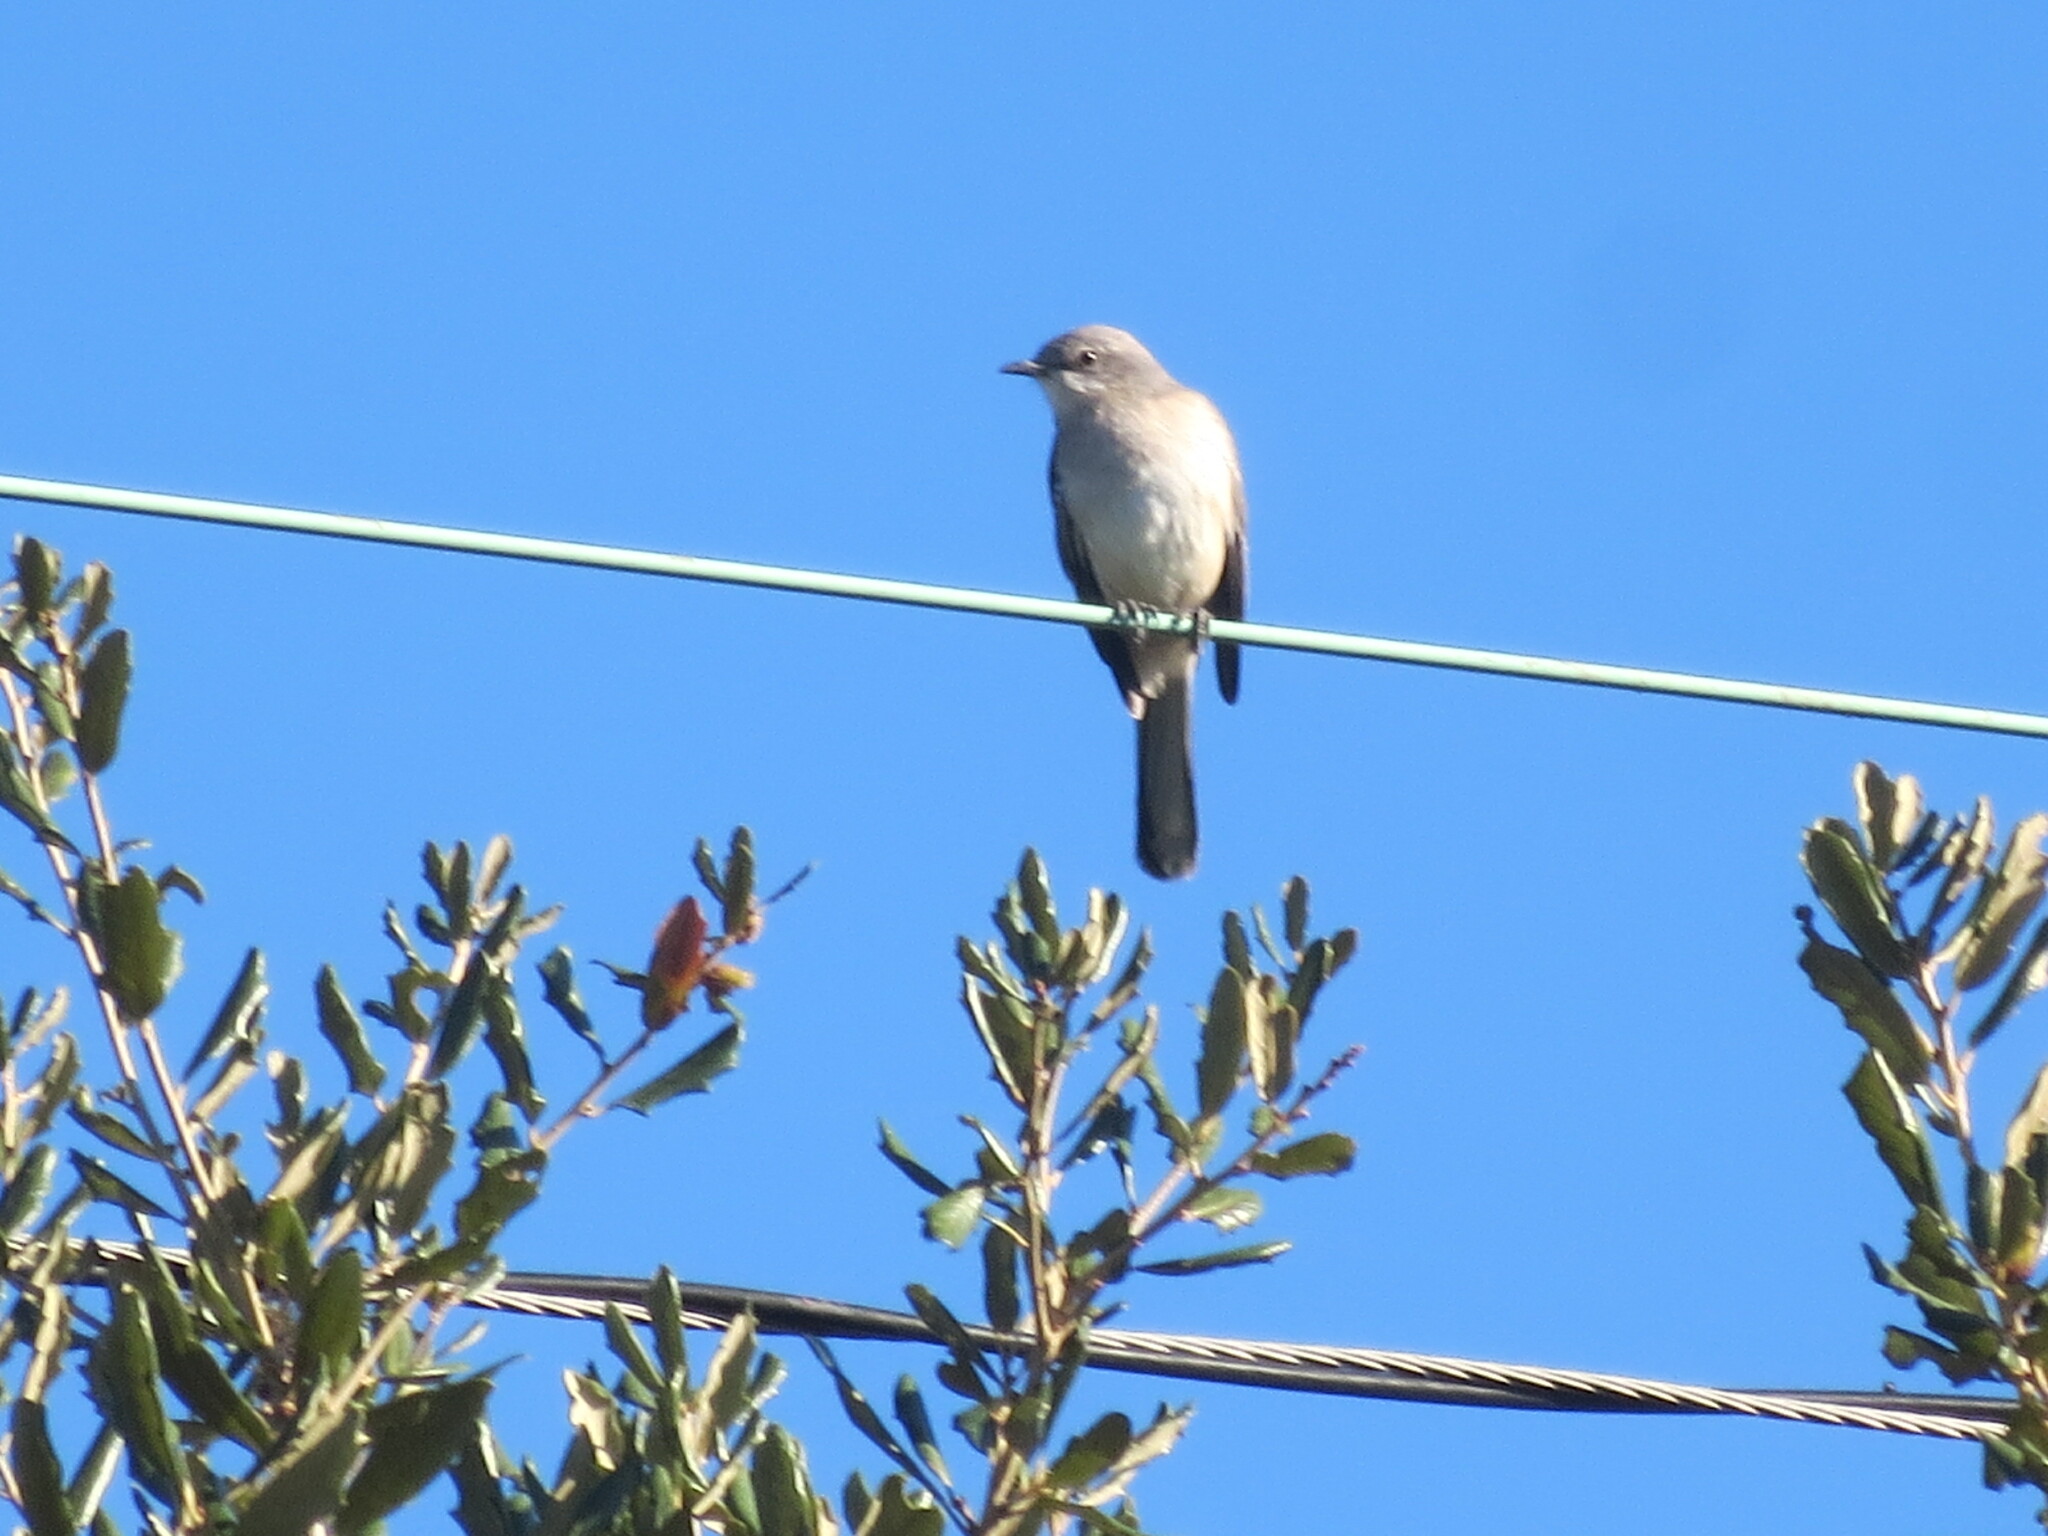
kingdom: Animalia
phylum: Chordata
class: Aves
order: Passeriformes
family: Mimidae
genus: Mimus
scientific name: Mimus polyglottos
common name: Northern mockingbird
